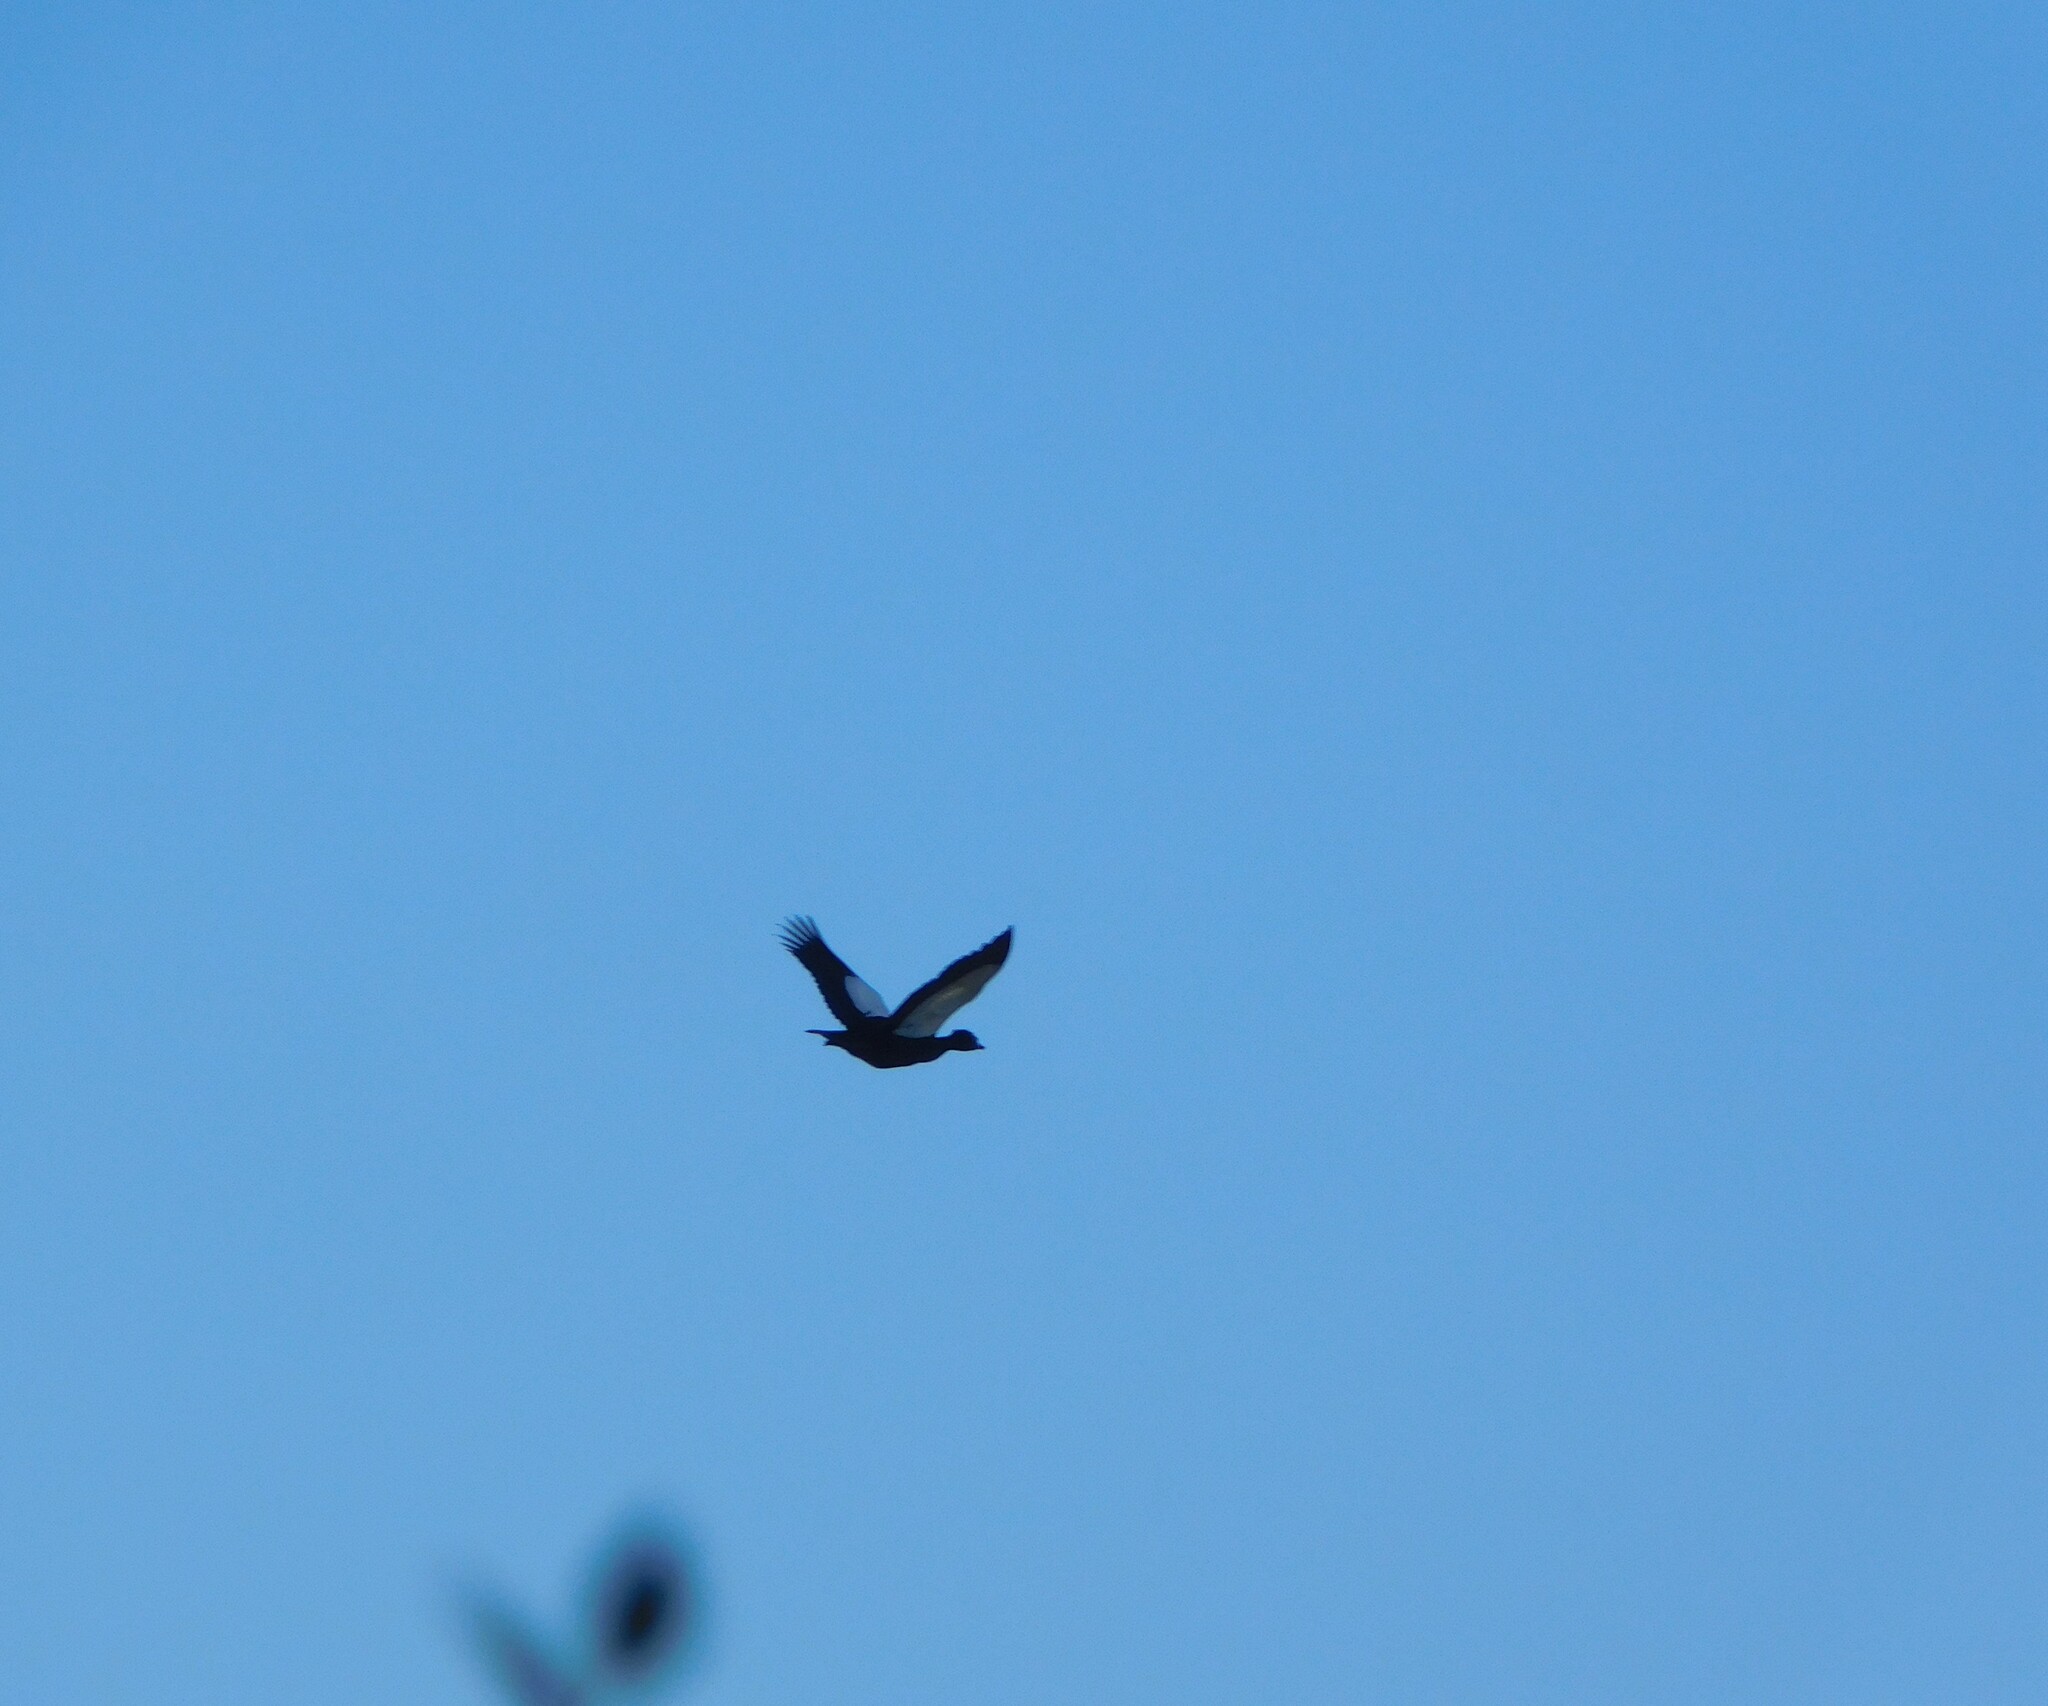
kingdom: Animalia
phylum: Chordata
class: Aves
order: Anseriformes
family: Anatidae
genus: Cairina
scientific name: Cairina moschata
